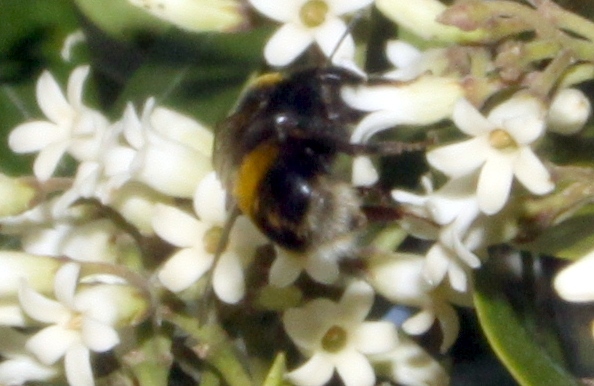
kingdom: Animalia
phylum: Arthropoda
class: Insecta
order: Hymenoptera
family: Apidae
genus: Bombus
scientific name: Bombus terrestris
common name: Buff-tailed bumblebee
